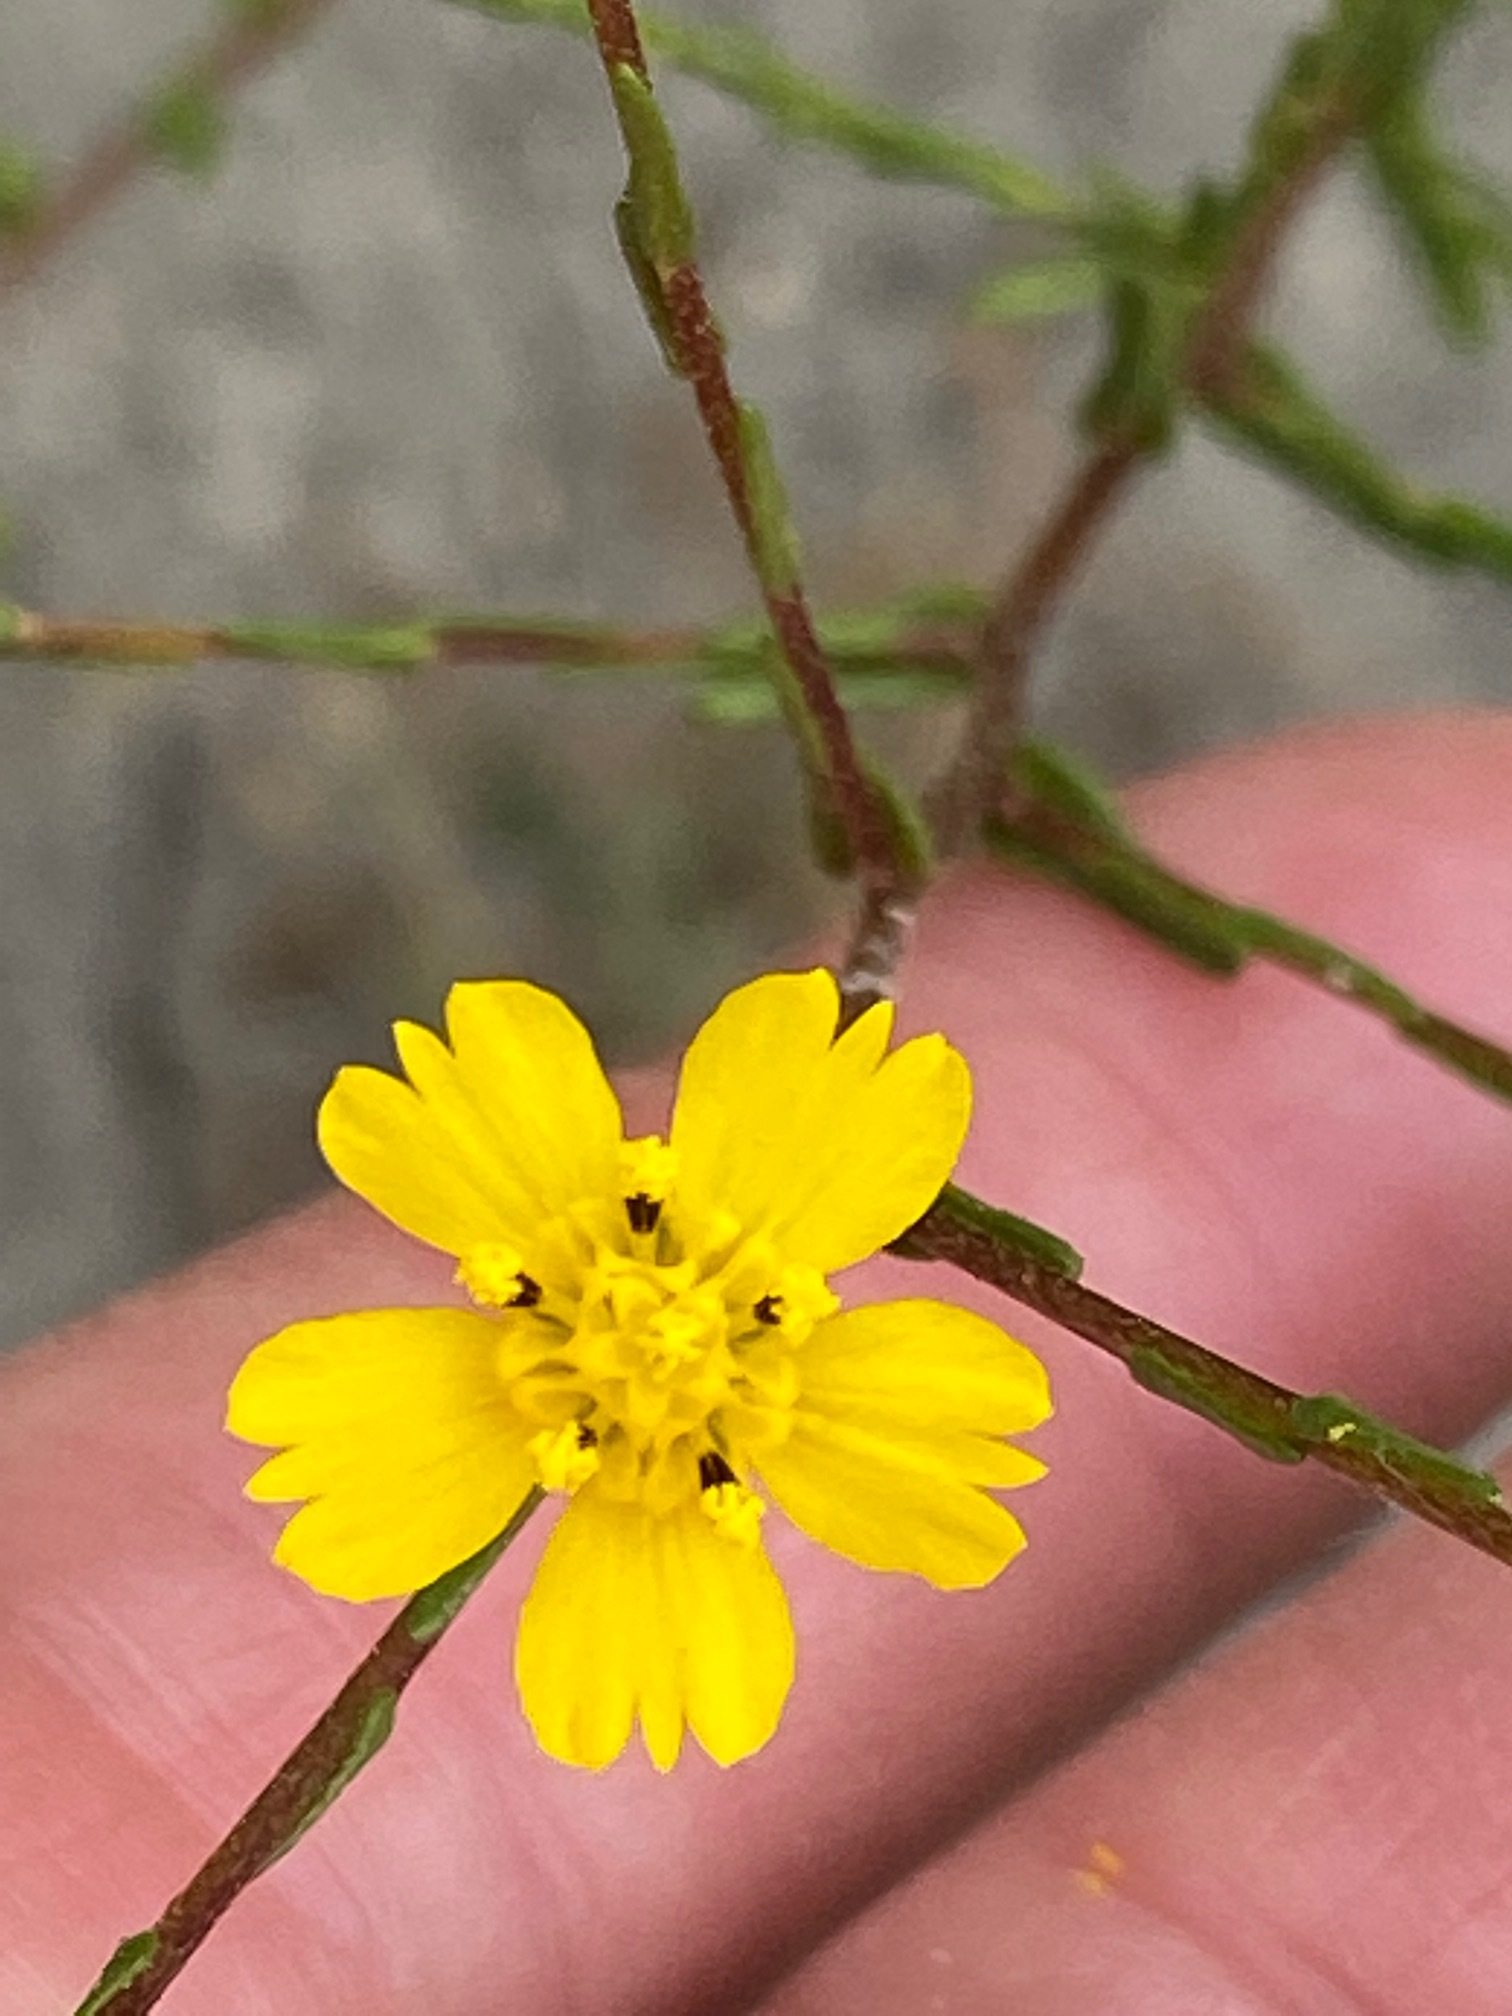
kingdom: Plantae
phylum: Tracheophyta
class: Magnoliopsida
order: Asterales
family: Asteraceae
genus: Deinandra
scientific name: Deinandra fasciculata
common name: Clustered tarweed
